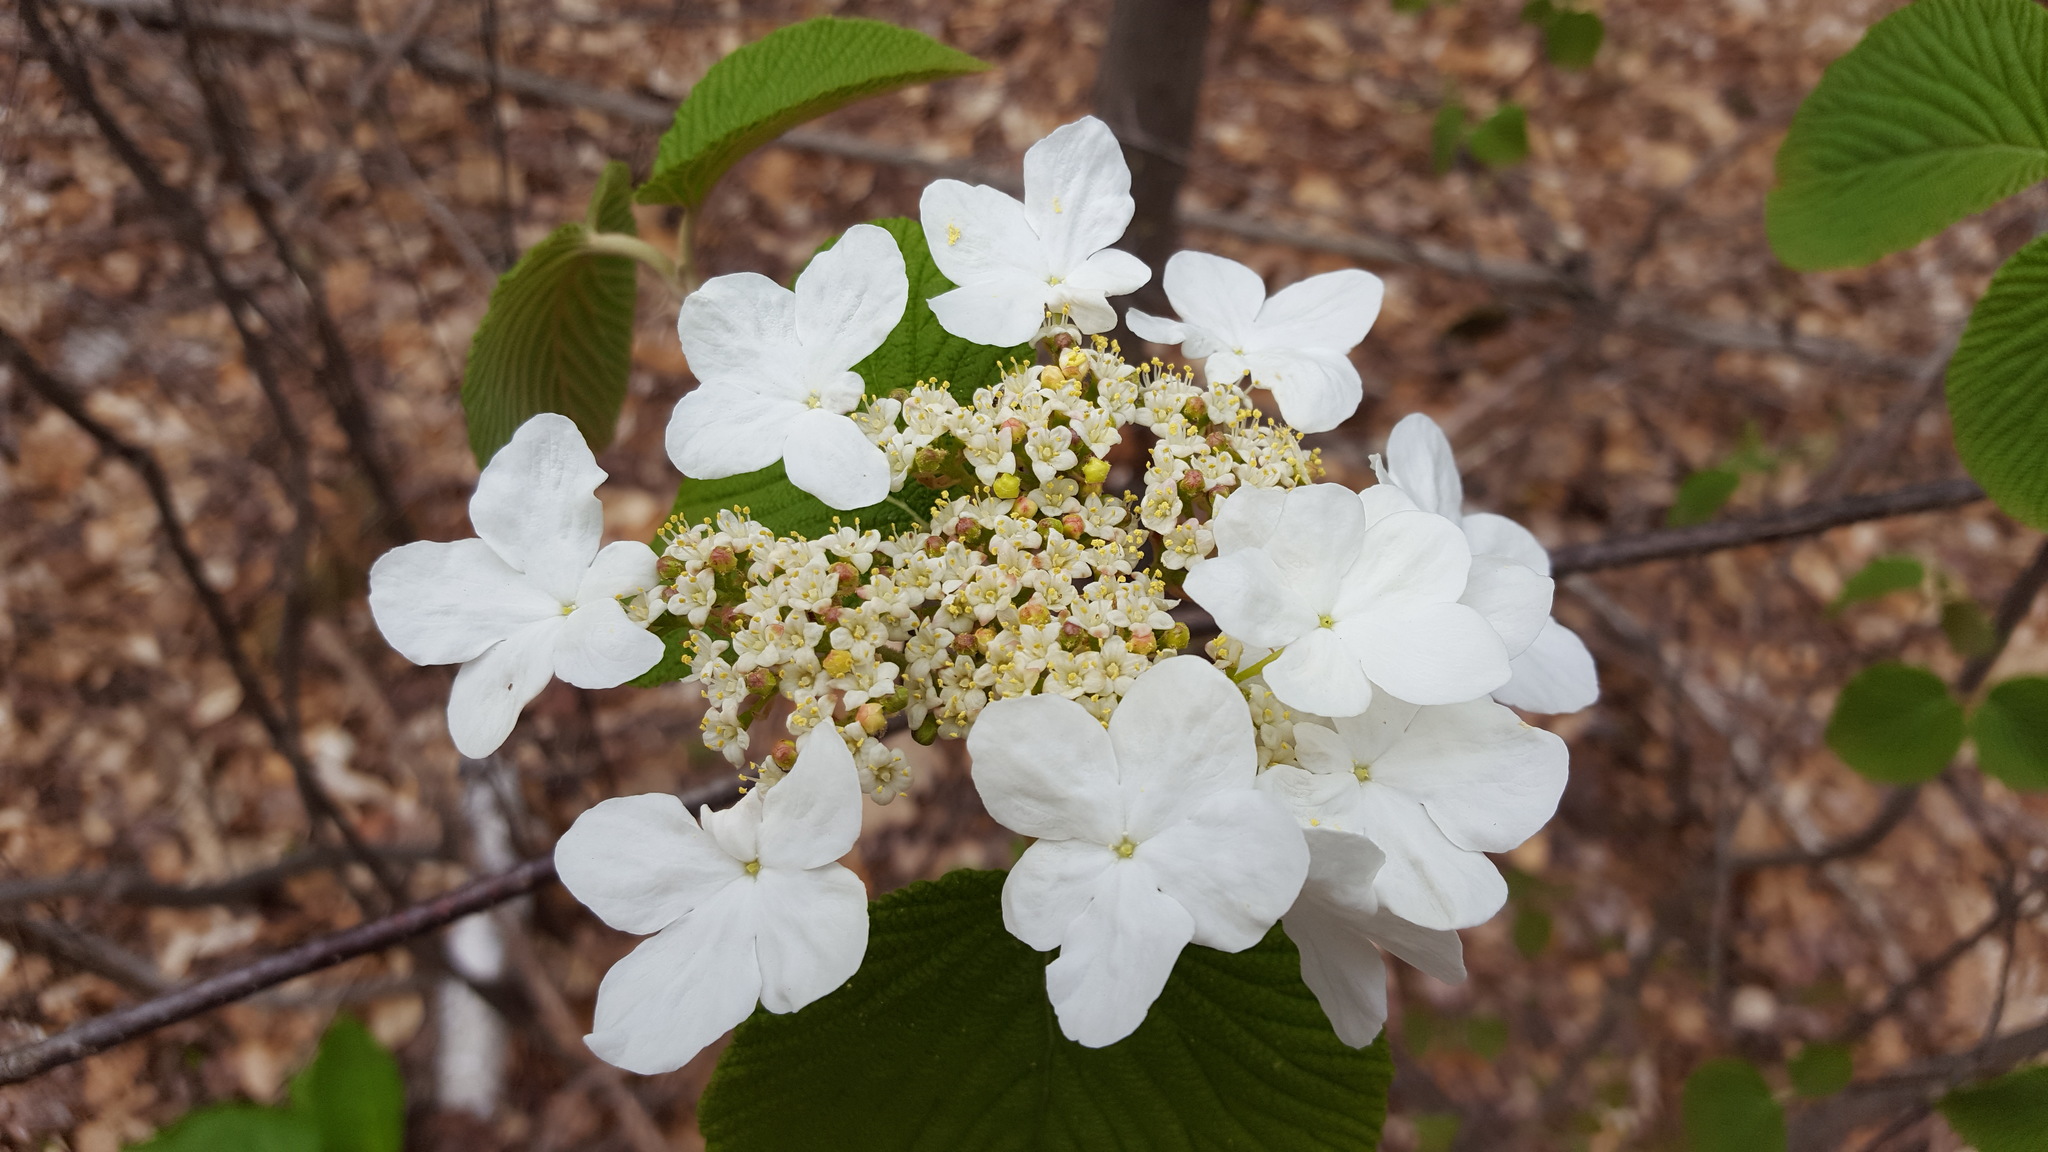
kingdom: Plantae
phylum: Tracheophyta
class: Magnoliopsida
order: Dipsacales
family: Viburnaceae
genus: Viburnum
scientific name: Viburnum lantanoides
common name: Hobblebush
